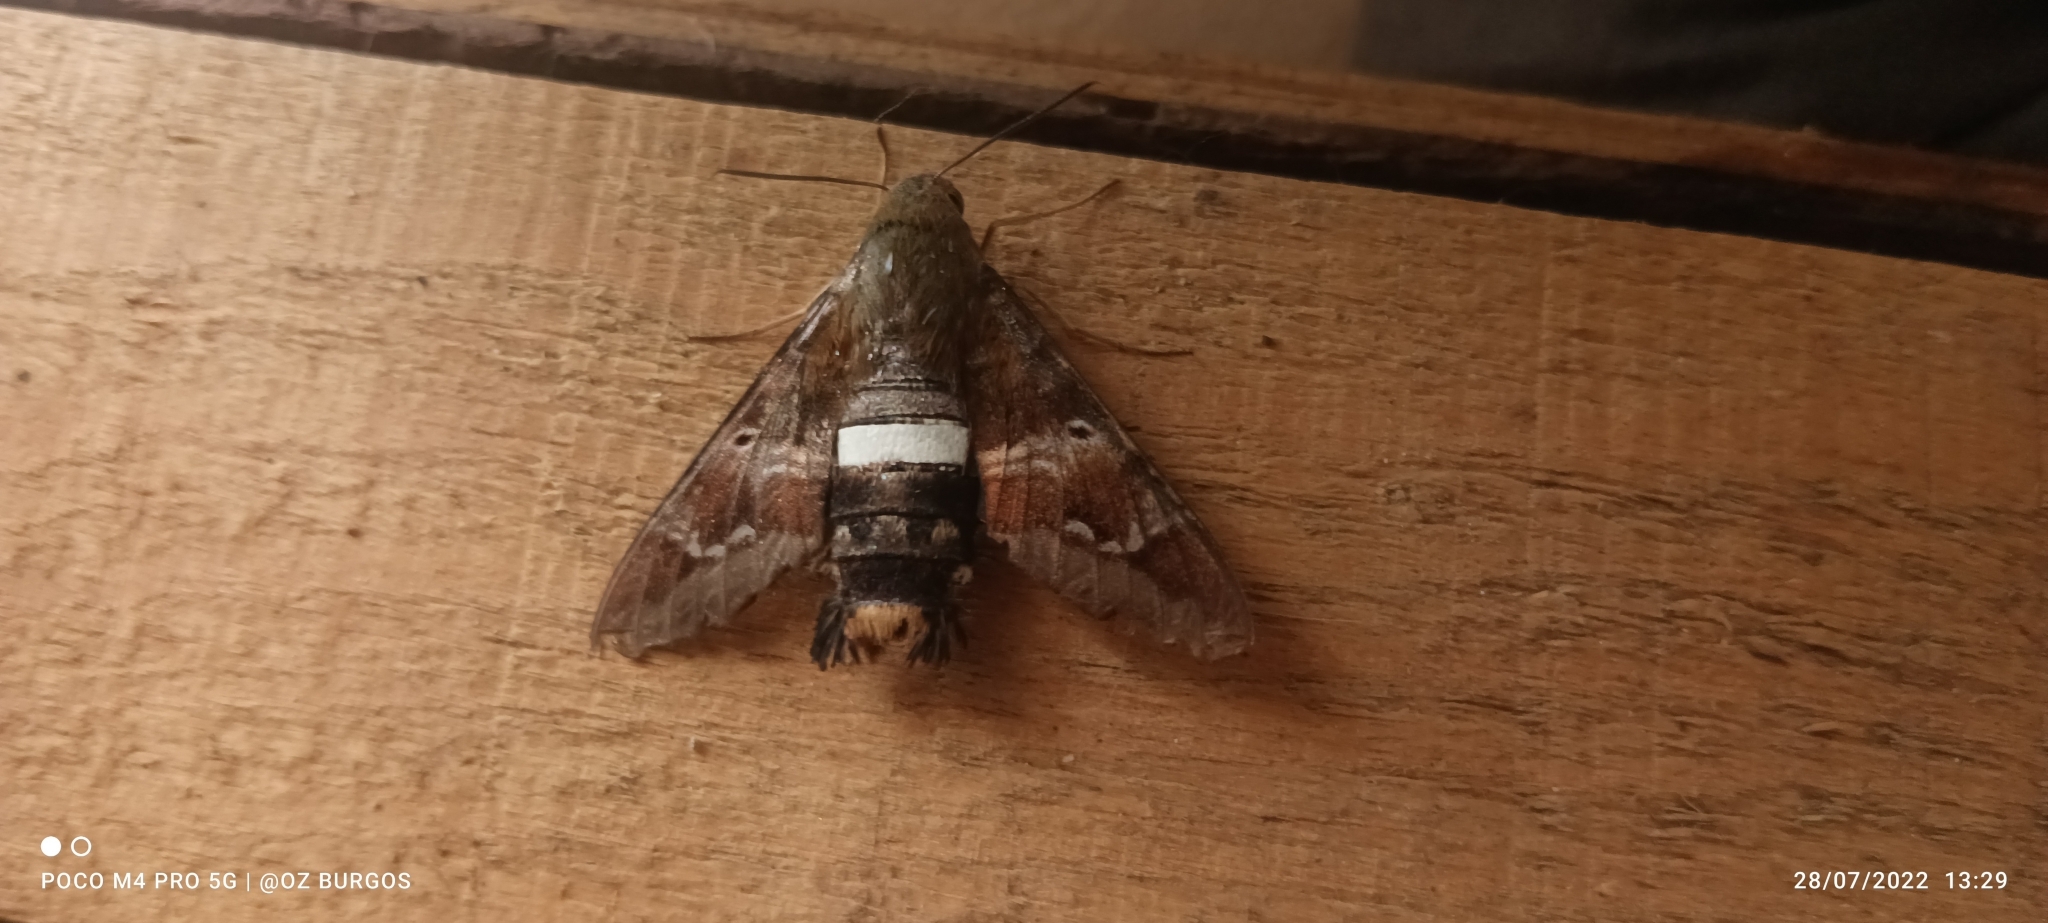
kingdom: Animalia
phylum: Arthropoda
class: Insecta
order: Lepidoptera
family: Sphingidae
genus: Aellopos
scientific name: Aellopos clavipes
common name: Clavipes sphinx
